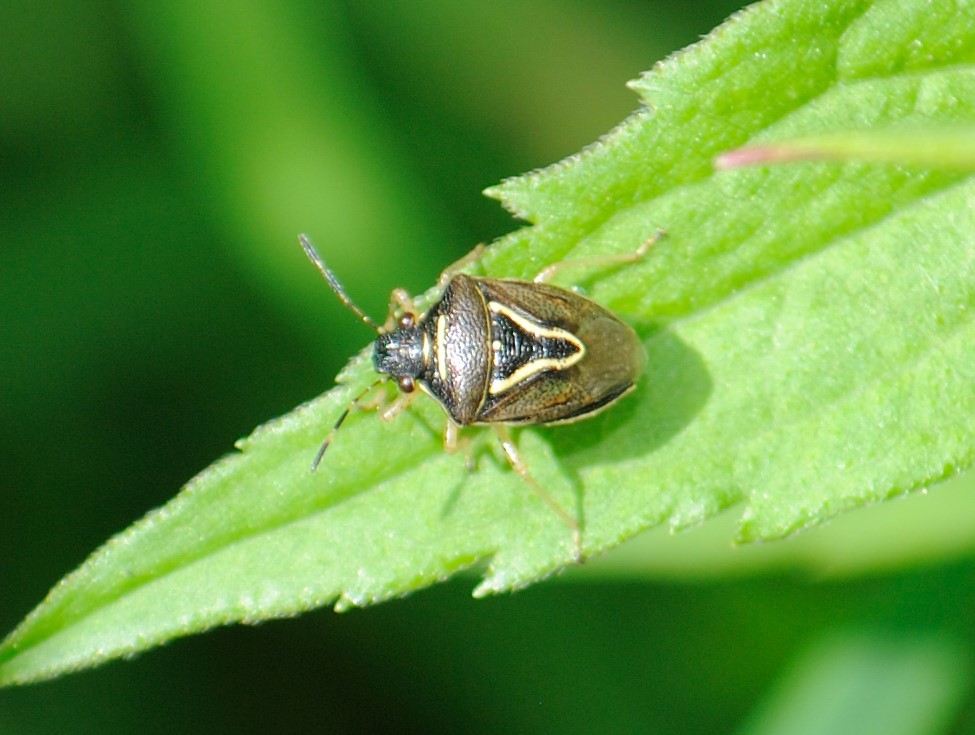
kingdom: Animalia
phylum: Arthropoda
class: Insecta
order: Hemiptera
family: Pentatomidae
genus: Mormidea
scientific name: Mormidea lugens
